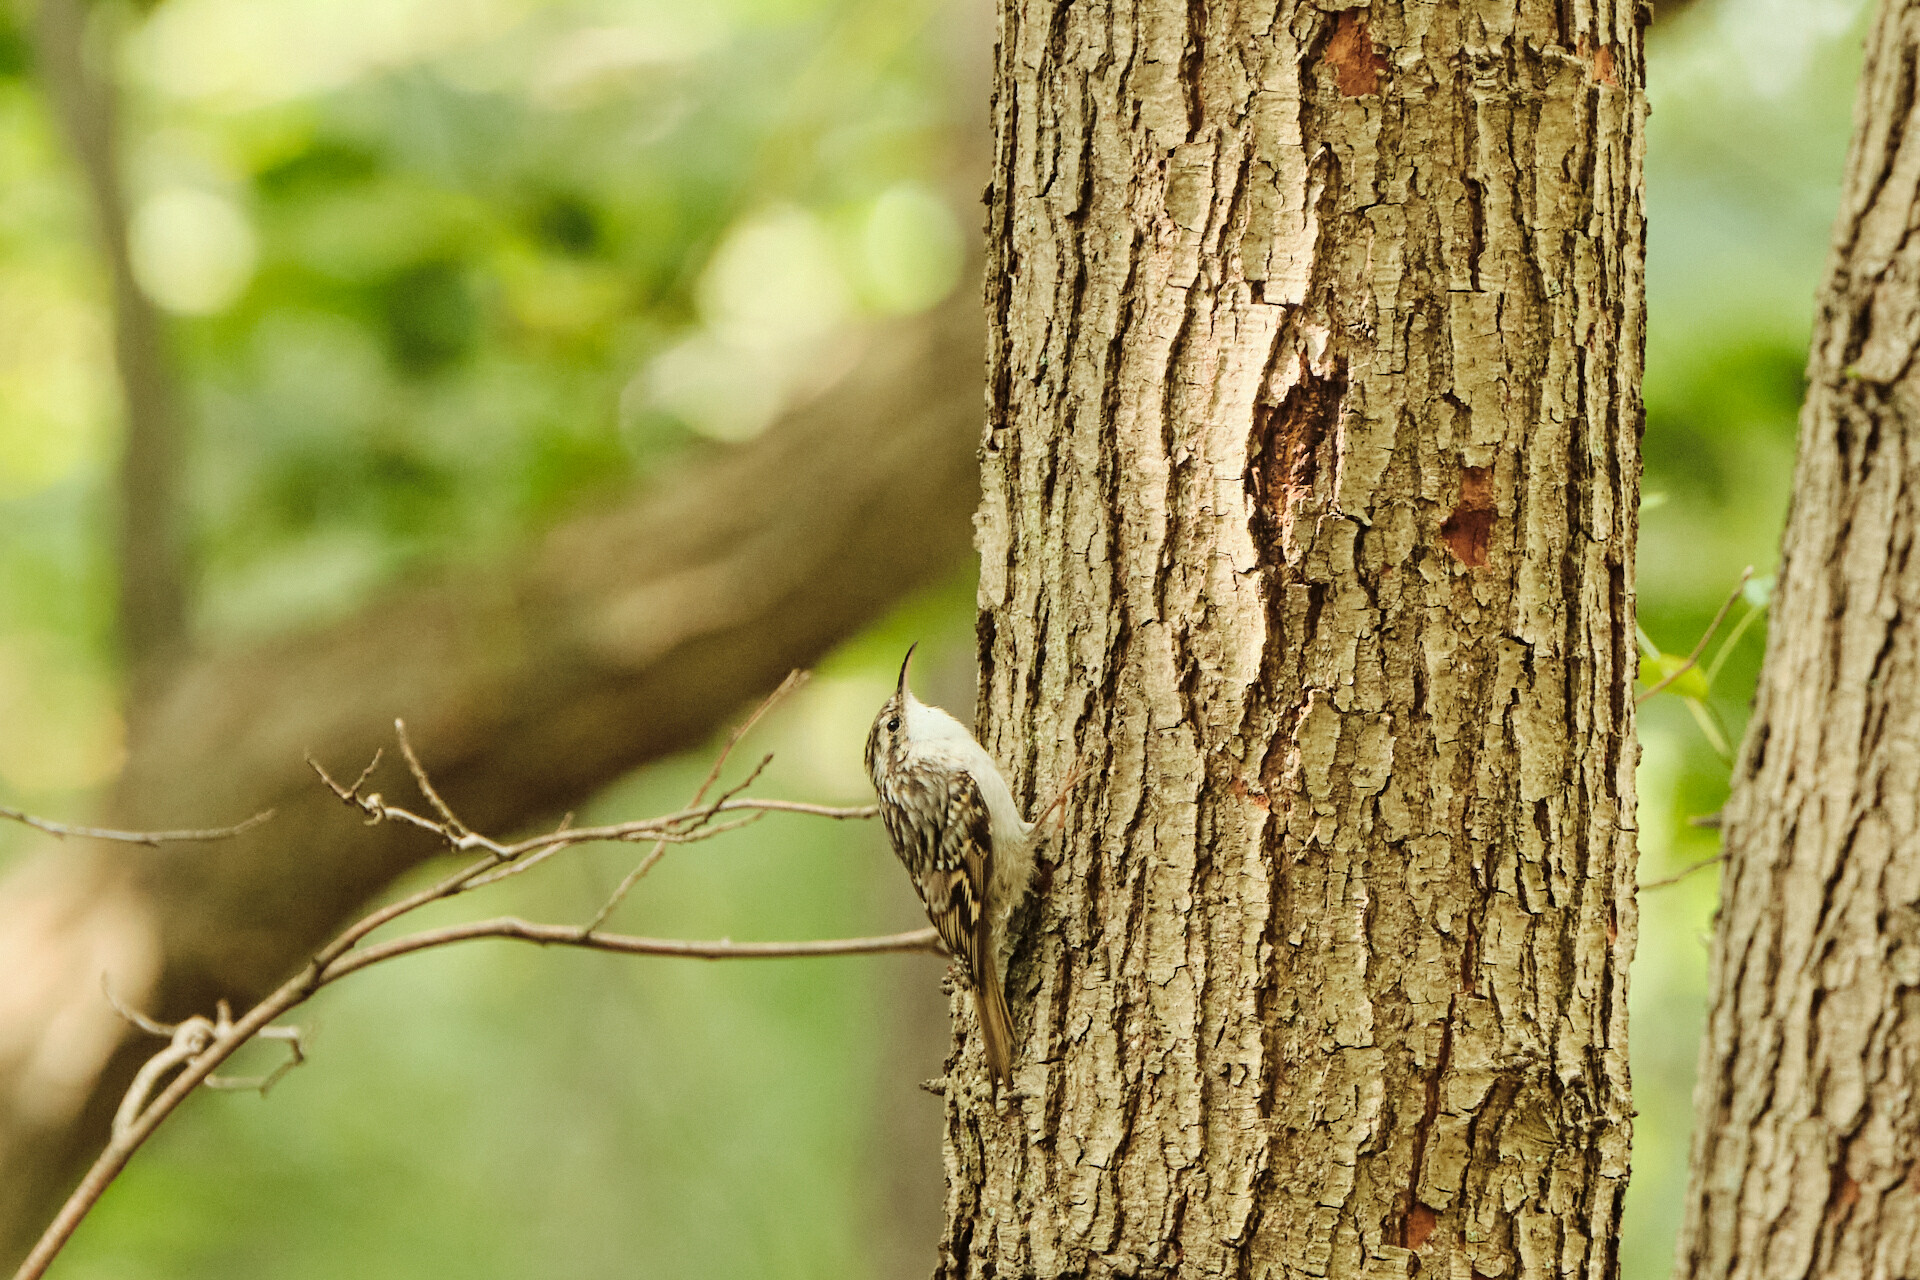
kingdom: Animalia
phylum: Chordata
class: Aves
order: Passeriformes
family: Certhiidae
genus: Certhia
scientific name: Certhia brachydactyla
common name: Short-toed treecreeper
